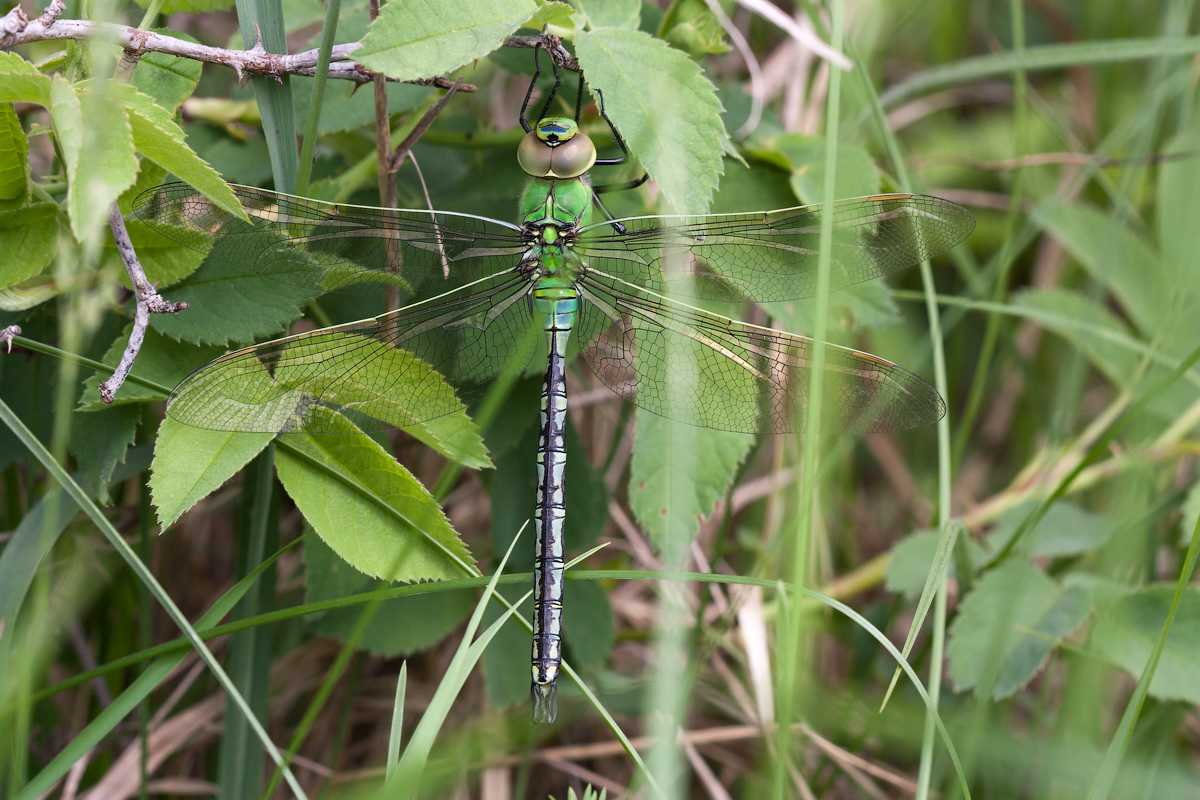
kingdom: Animalia
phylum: Arthropoda
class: Insecta
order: Odonata
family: Aeshnidae
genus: Anax
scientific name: Anax imperator
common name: Emperor dragonfly
